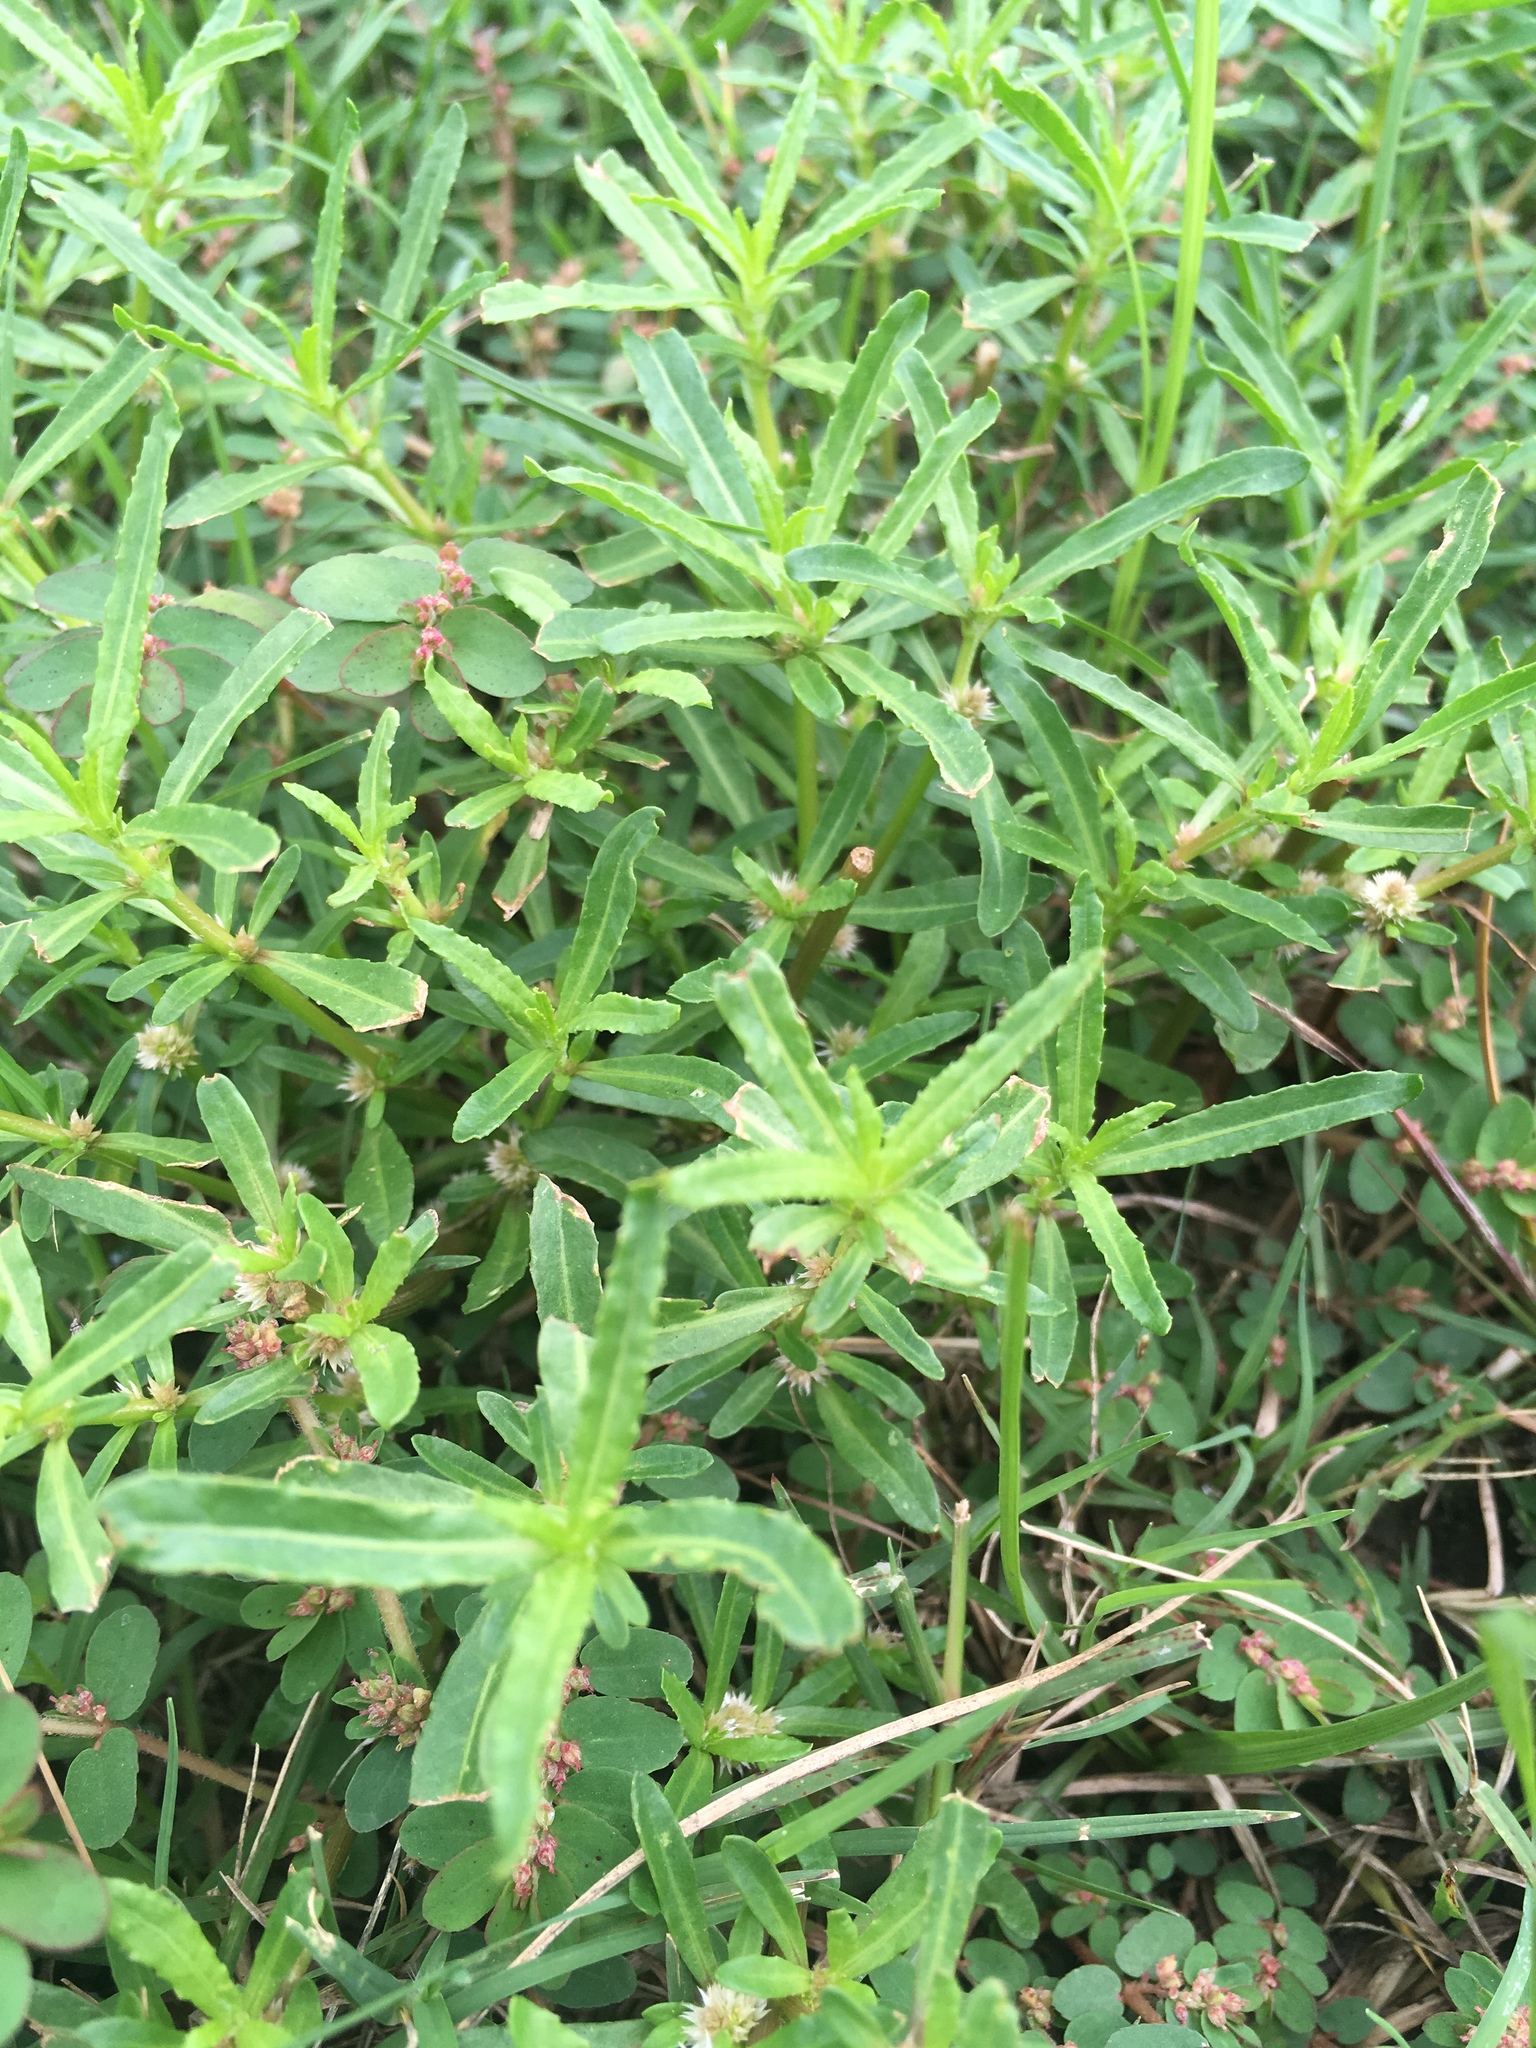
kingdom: Plantae
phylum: Tracheophyta
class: Magnoliopsida
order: Caryophyllales
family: Amaranthaceae
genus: Alternanthera
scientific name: Alternanthera sessilis
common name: Sessile joyweed
